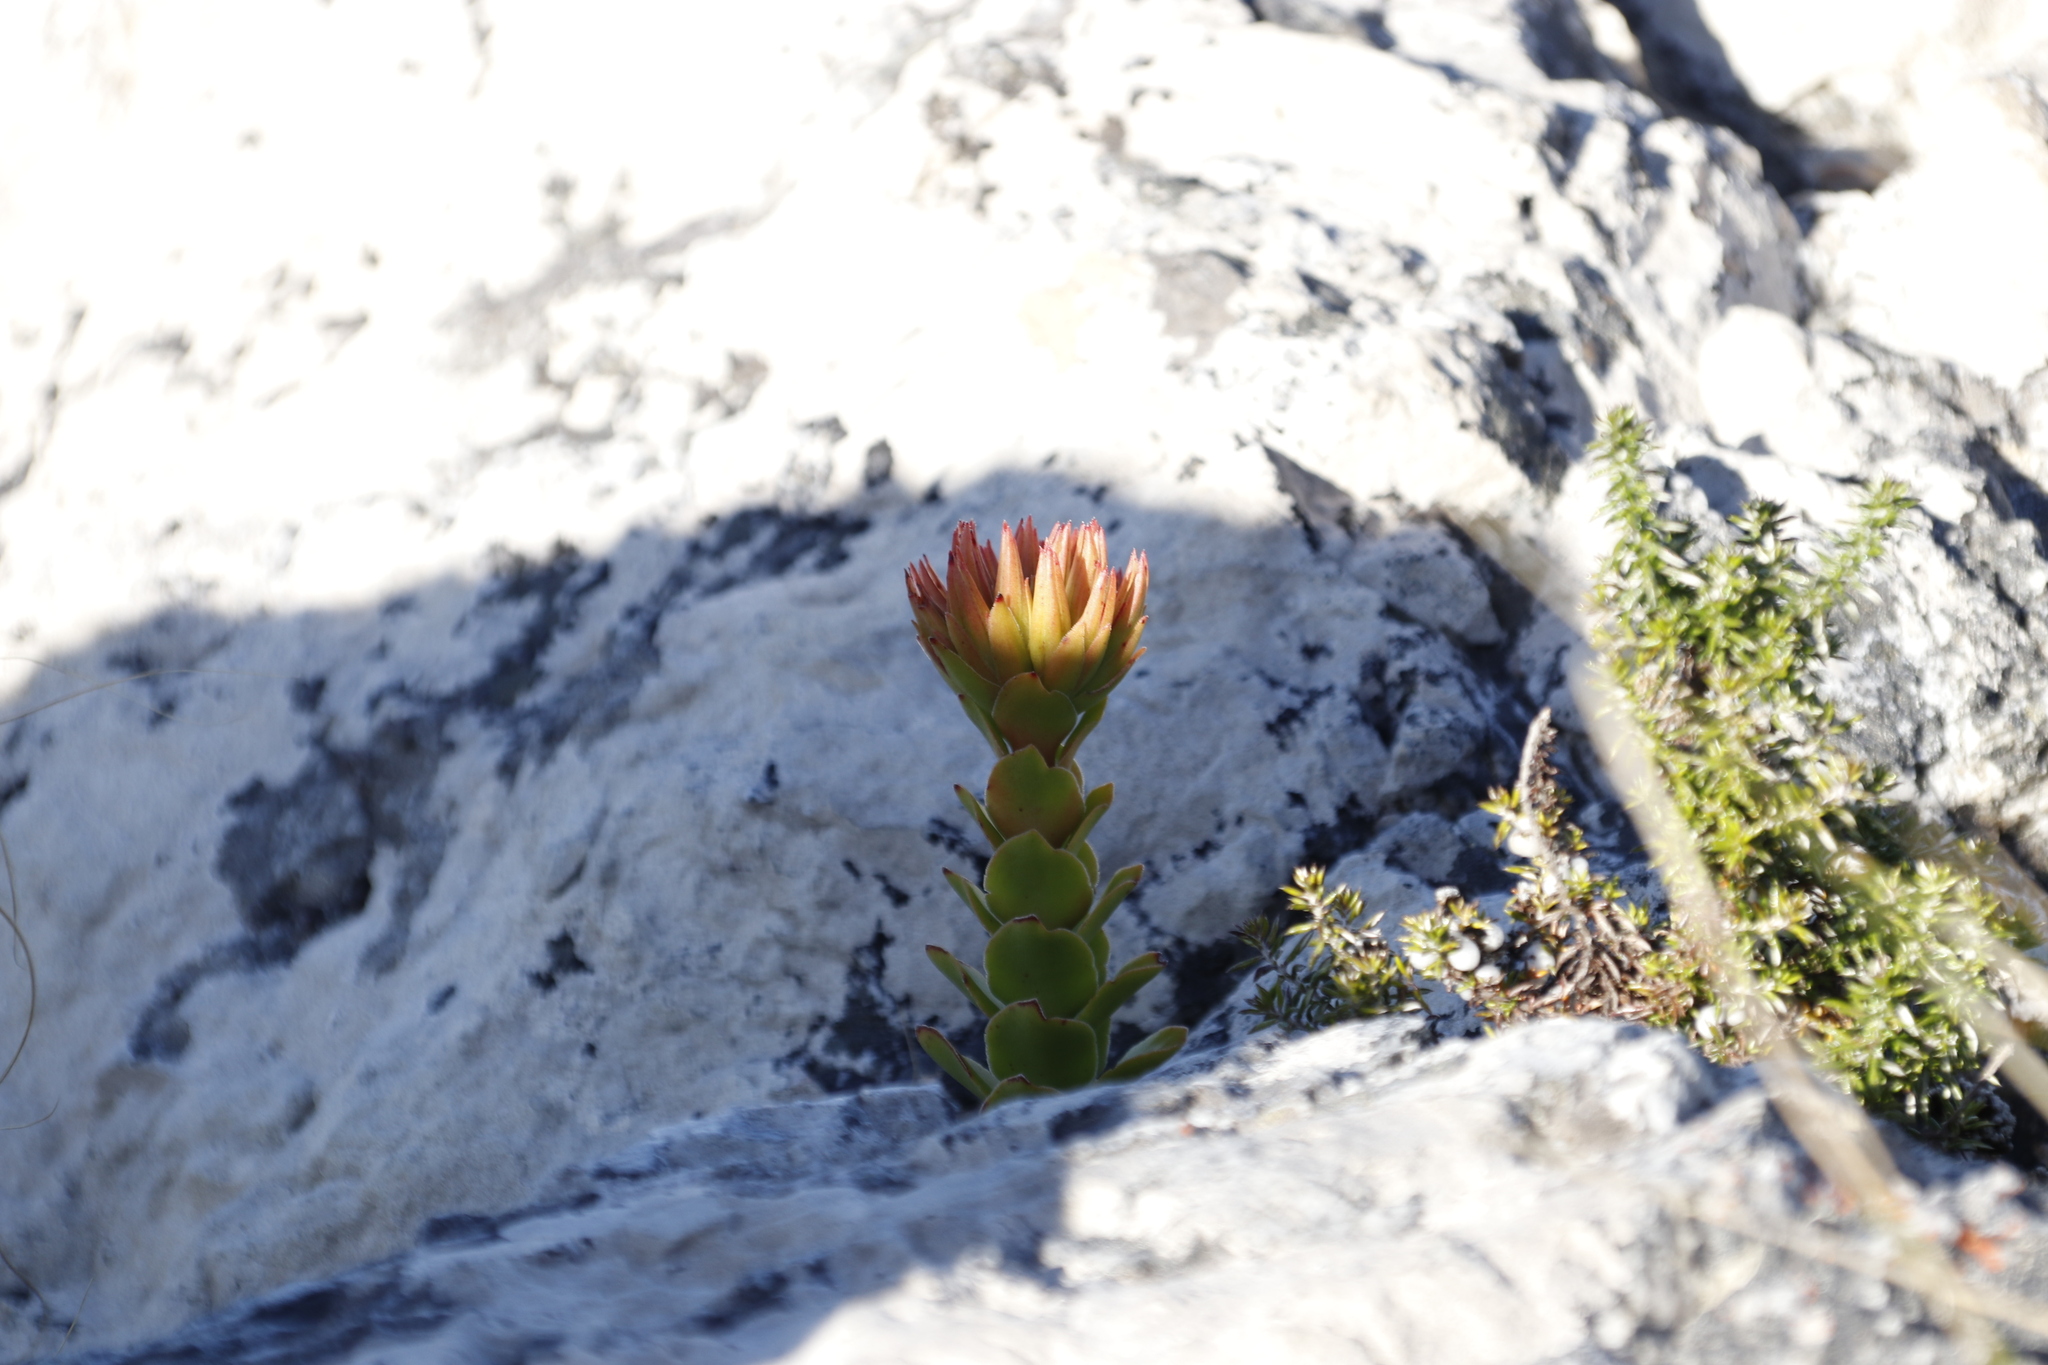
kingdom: Plantae
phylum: Tracheophyta
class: Magnoliopsida
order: Saxifragales
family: Crassulaceae
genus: Crassula
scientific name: Crassula coccinea
